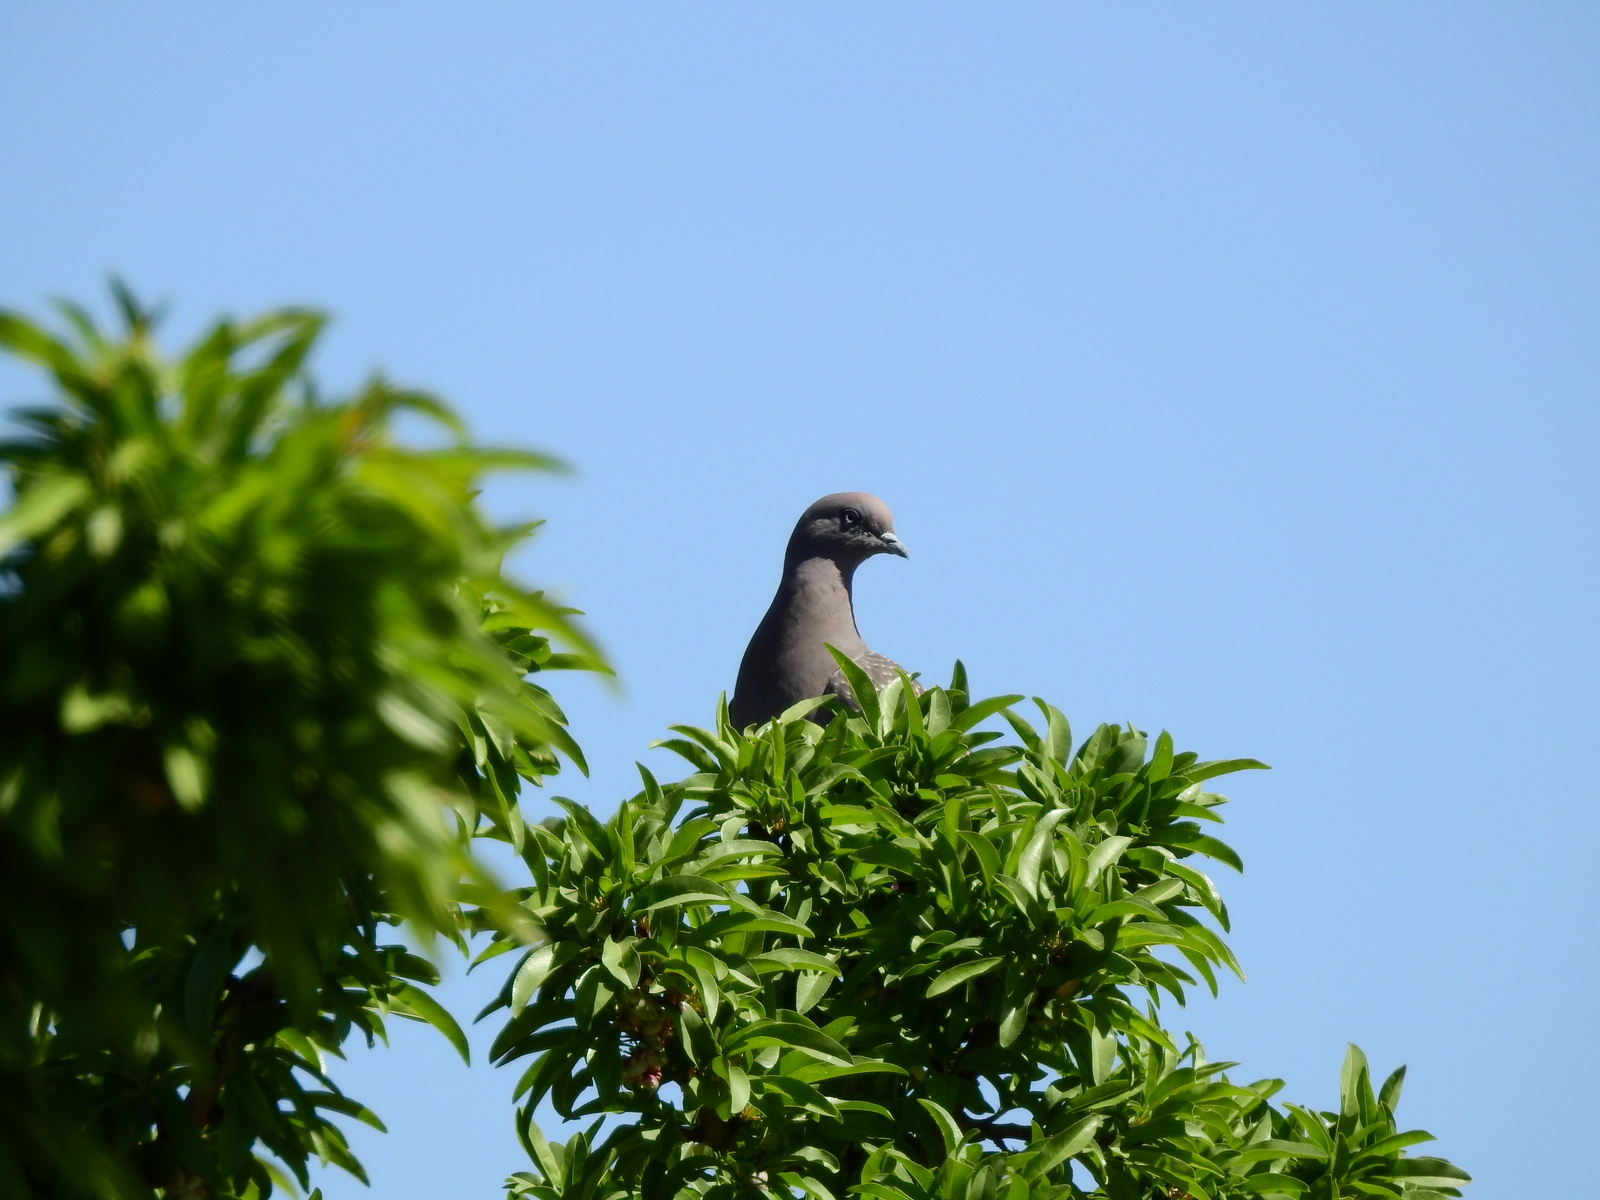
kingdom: Animalia
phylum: Chordata
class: Aves
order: Columbiformes
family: Columbidae
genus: Patagioenas
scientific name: Patagioenas maculosa
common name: Spot-winged pigeon
